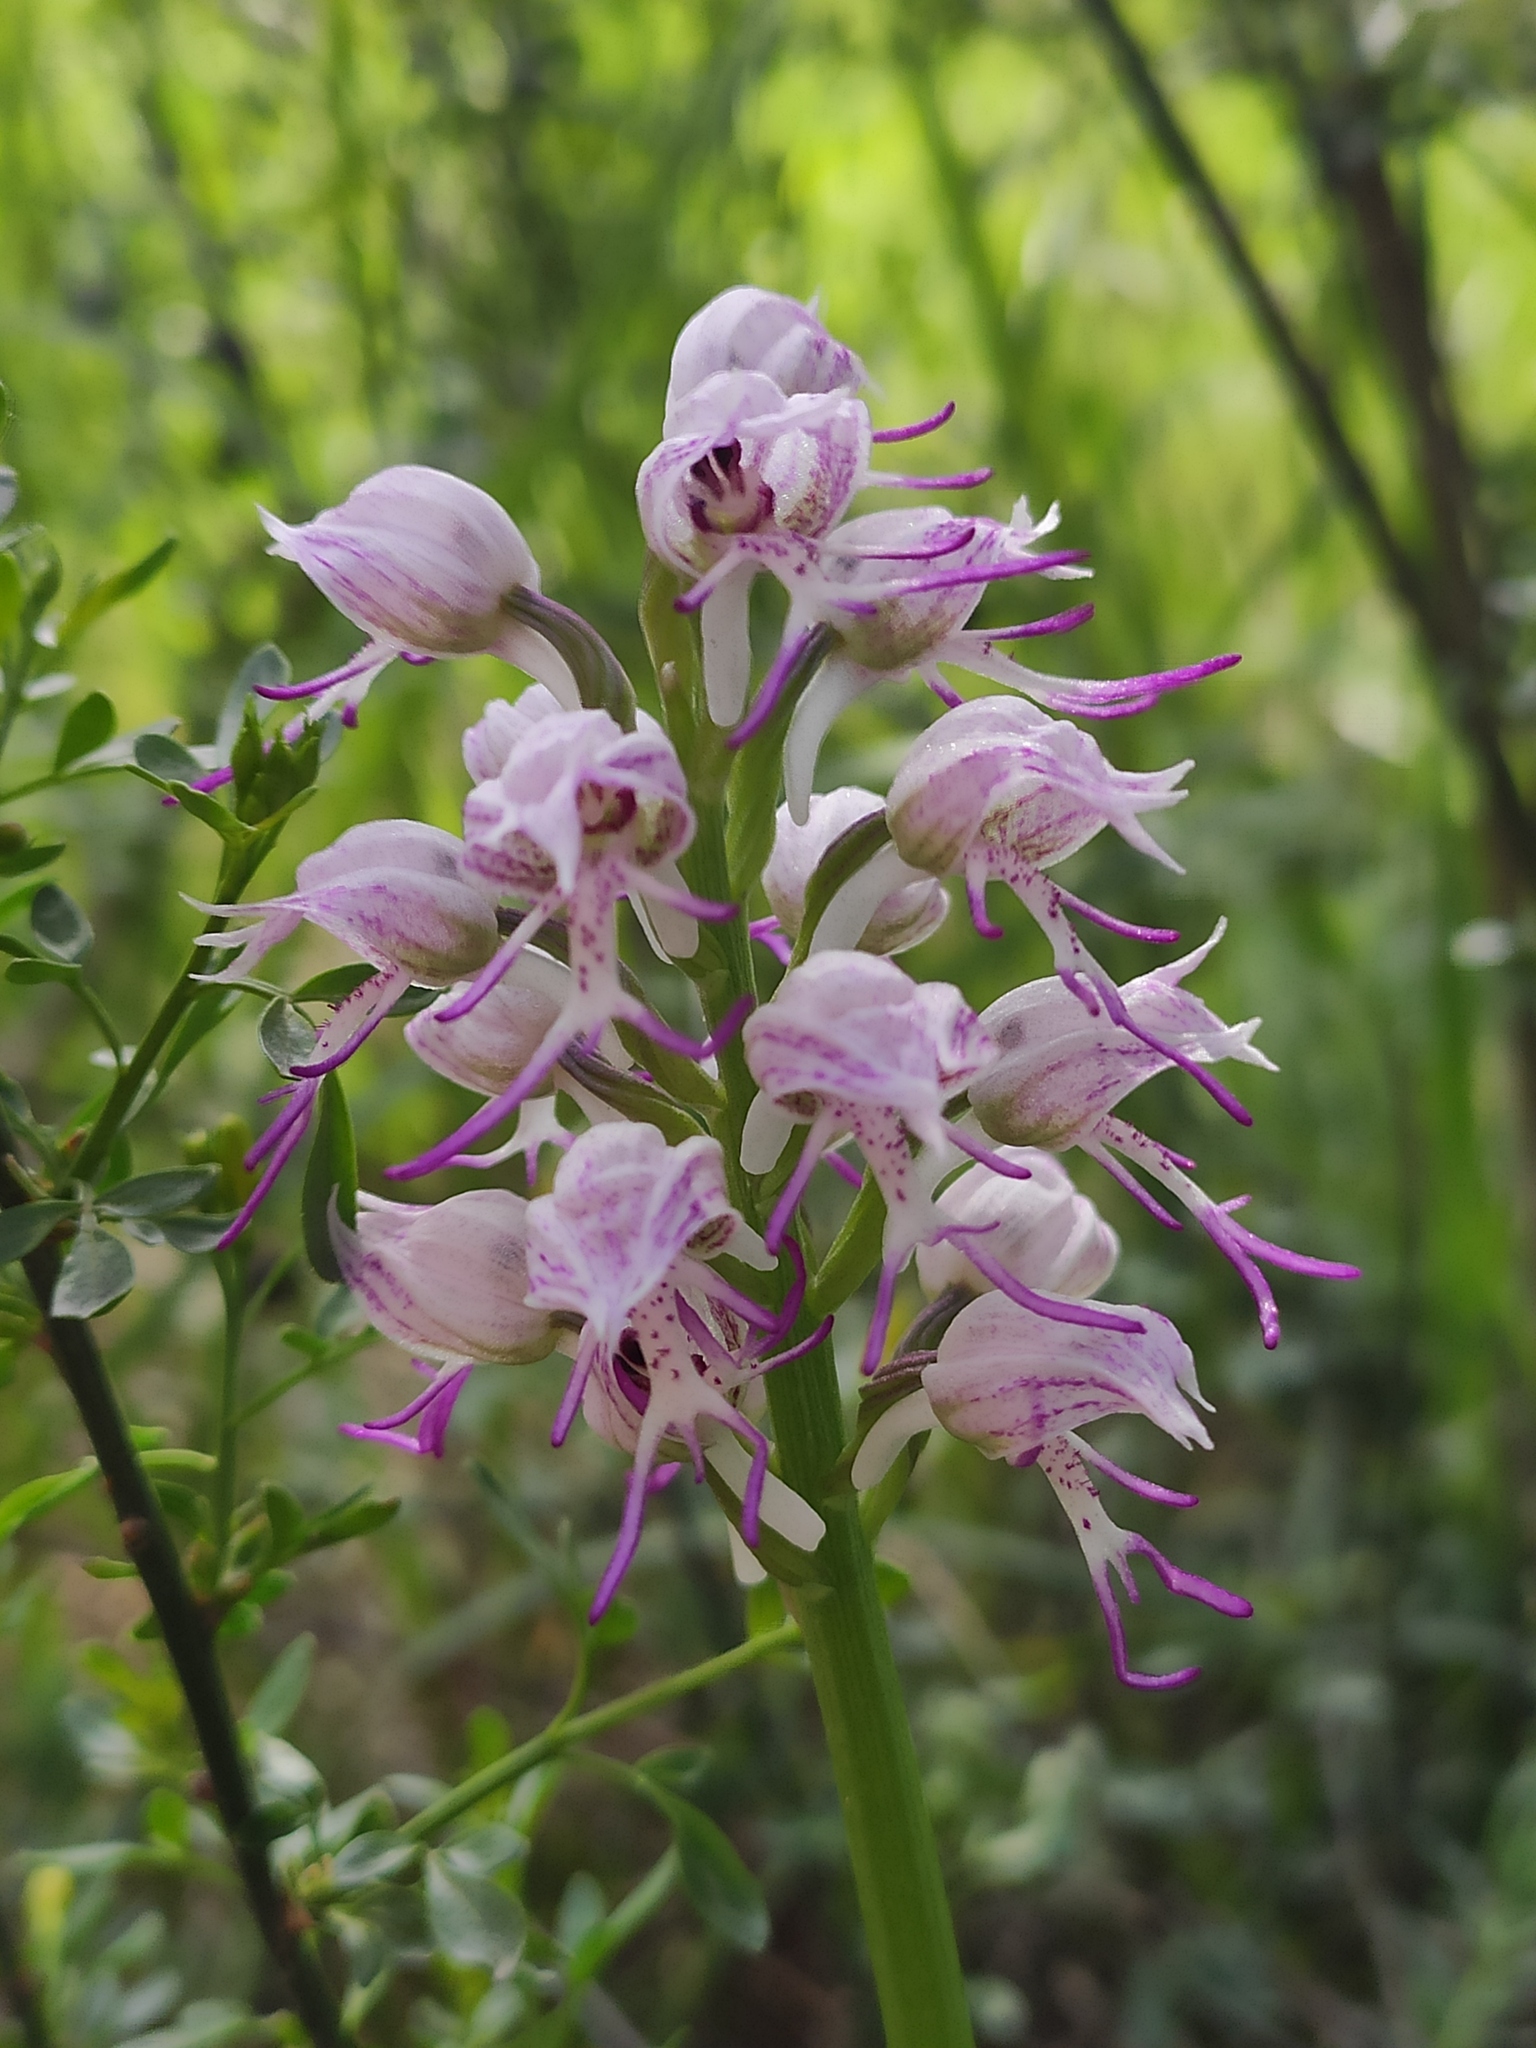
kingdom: Plantae
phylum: Tracheophyta
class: Liliopsida
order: Asparagales
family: Orchidaceae
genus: Orchis
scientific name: Orchis simia
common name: Monkey orchid
